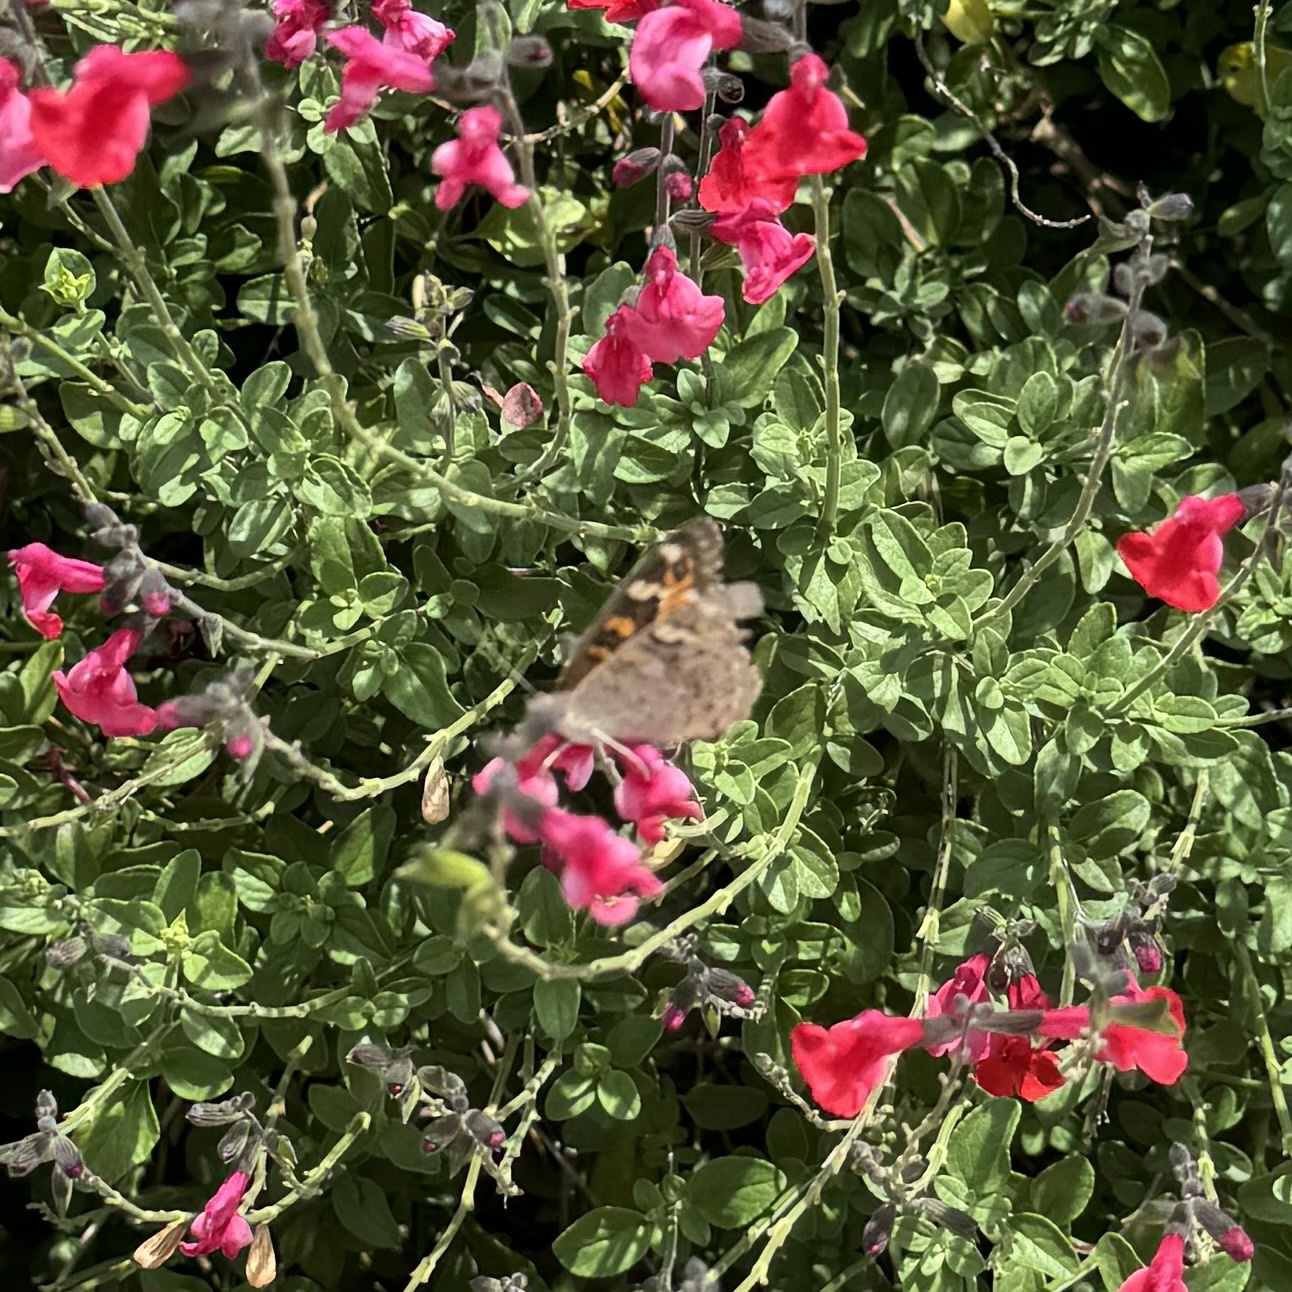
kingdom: Animalia
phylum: Arthropoda
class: Insecta
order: Lepidoptera
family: Nymphalidae
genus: Junonia
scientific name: Junonia villida
